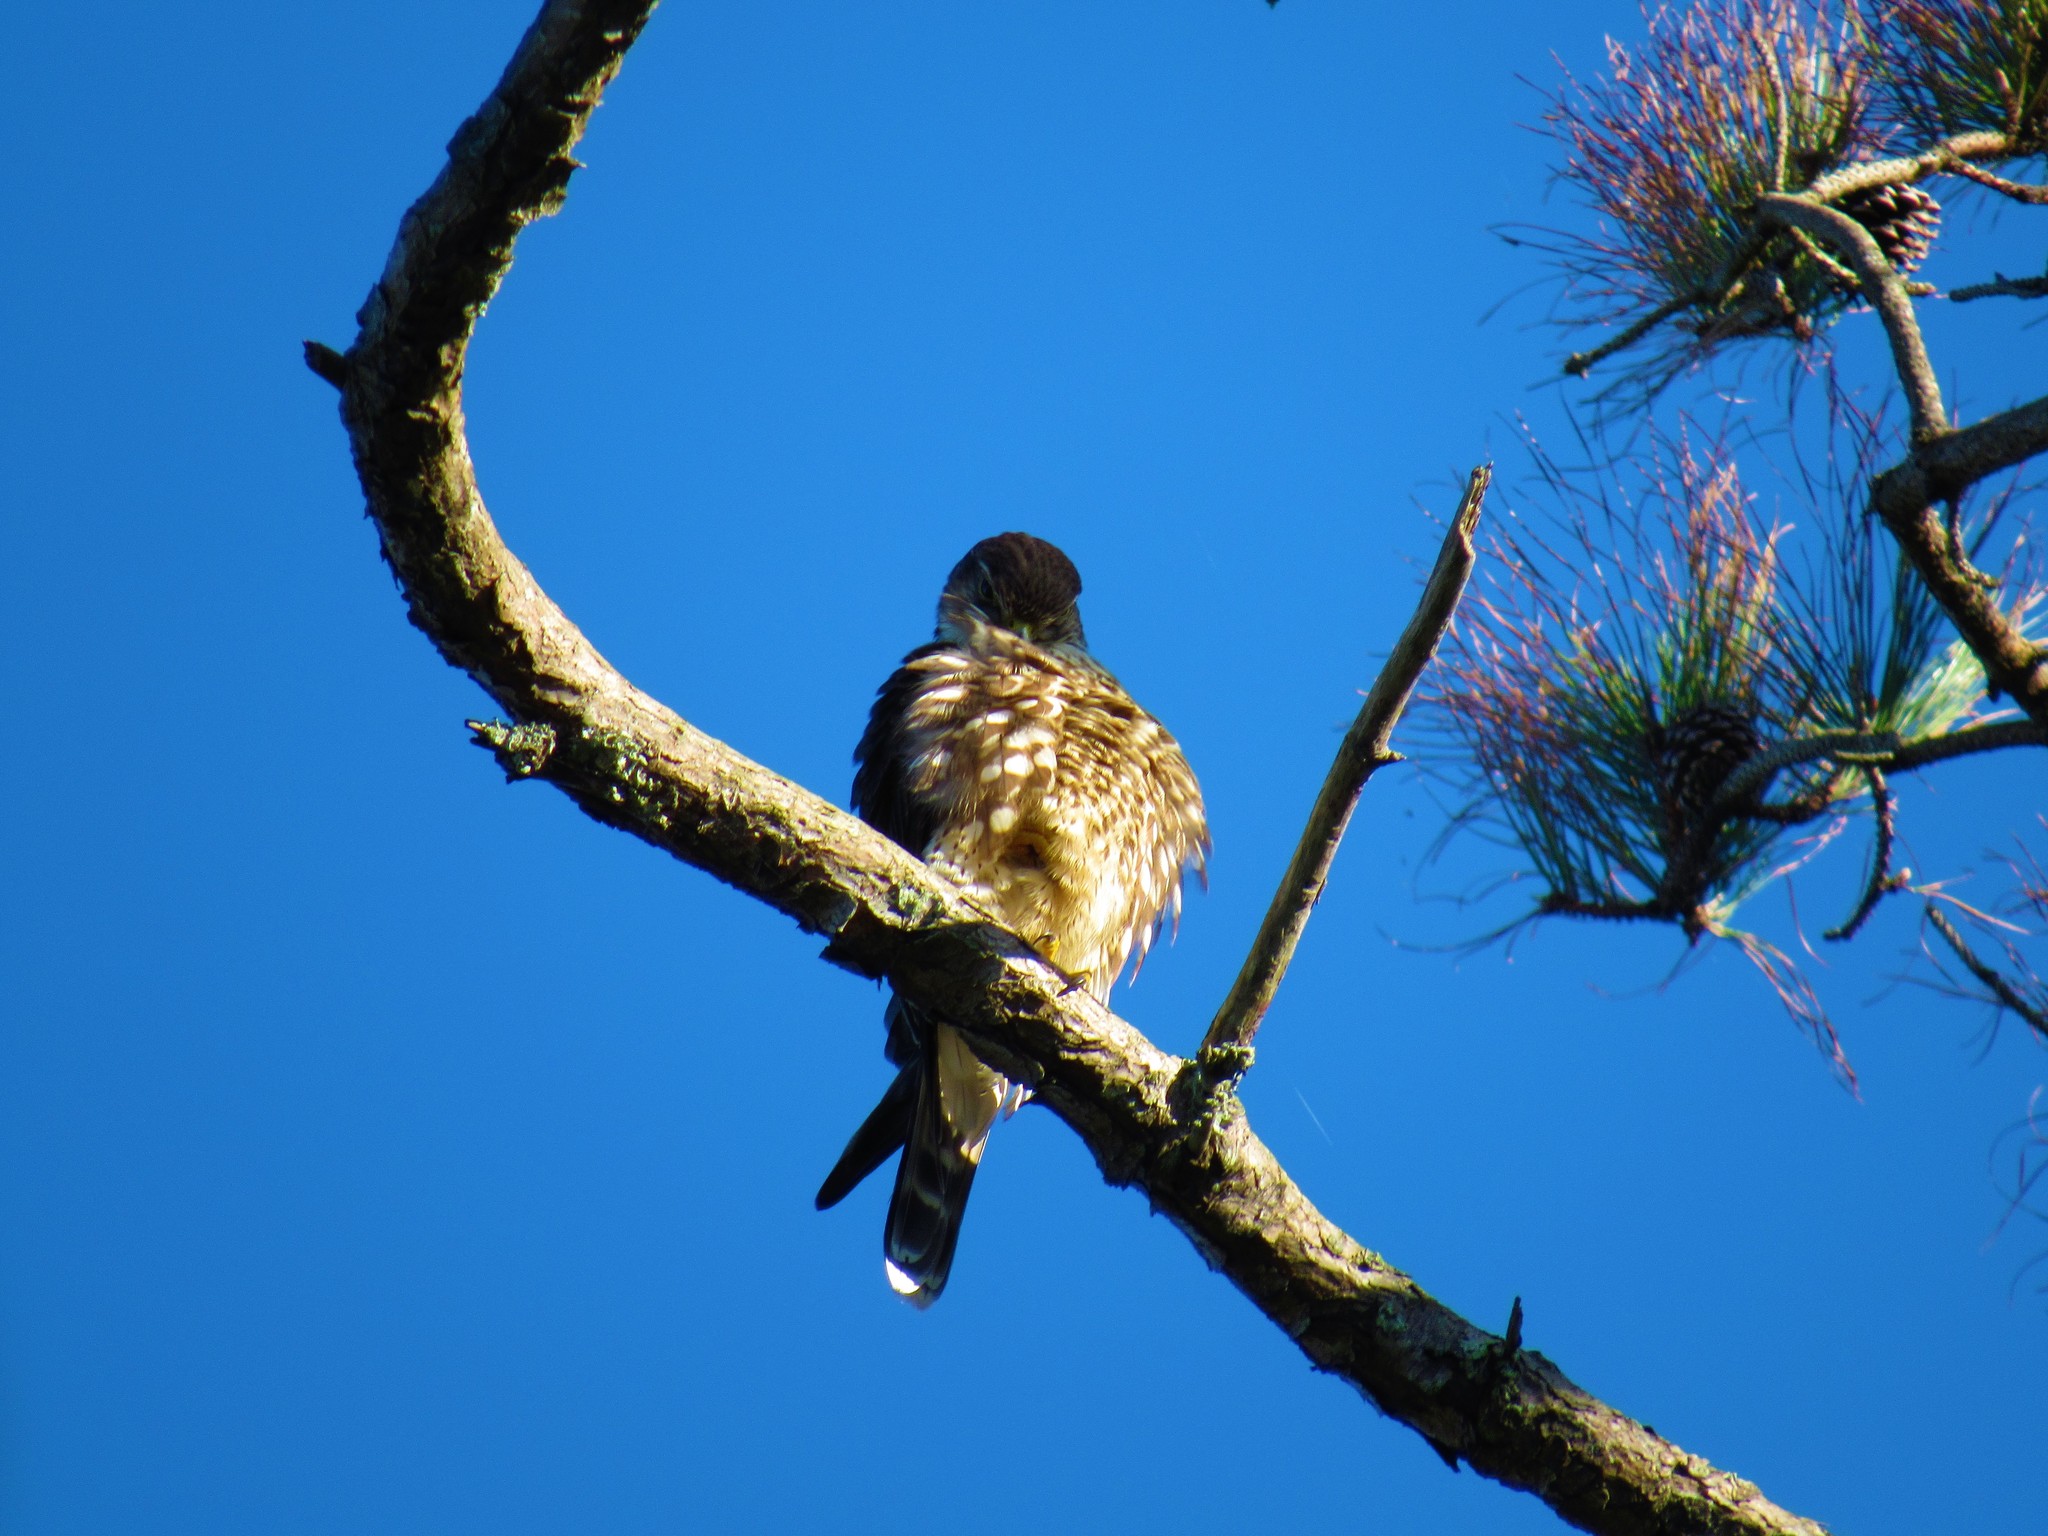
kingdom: Animalia
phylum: Chordata
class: Aves
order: Falconiformes
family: Falconidae
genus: Falco
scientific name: Falco columbarius
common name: Merlin
